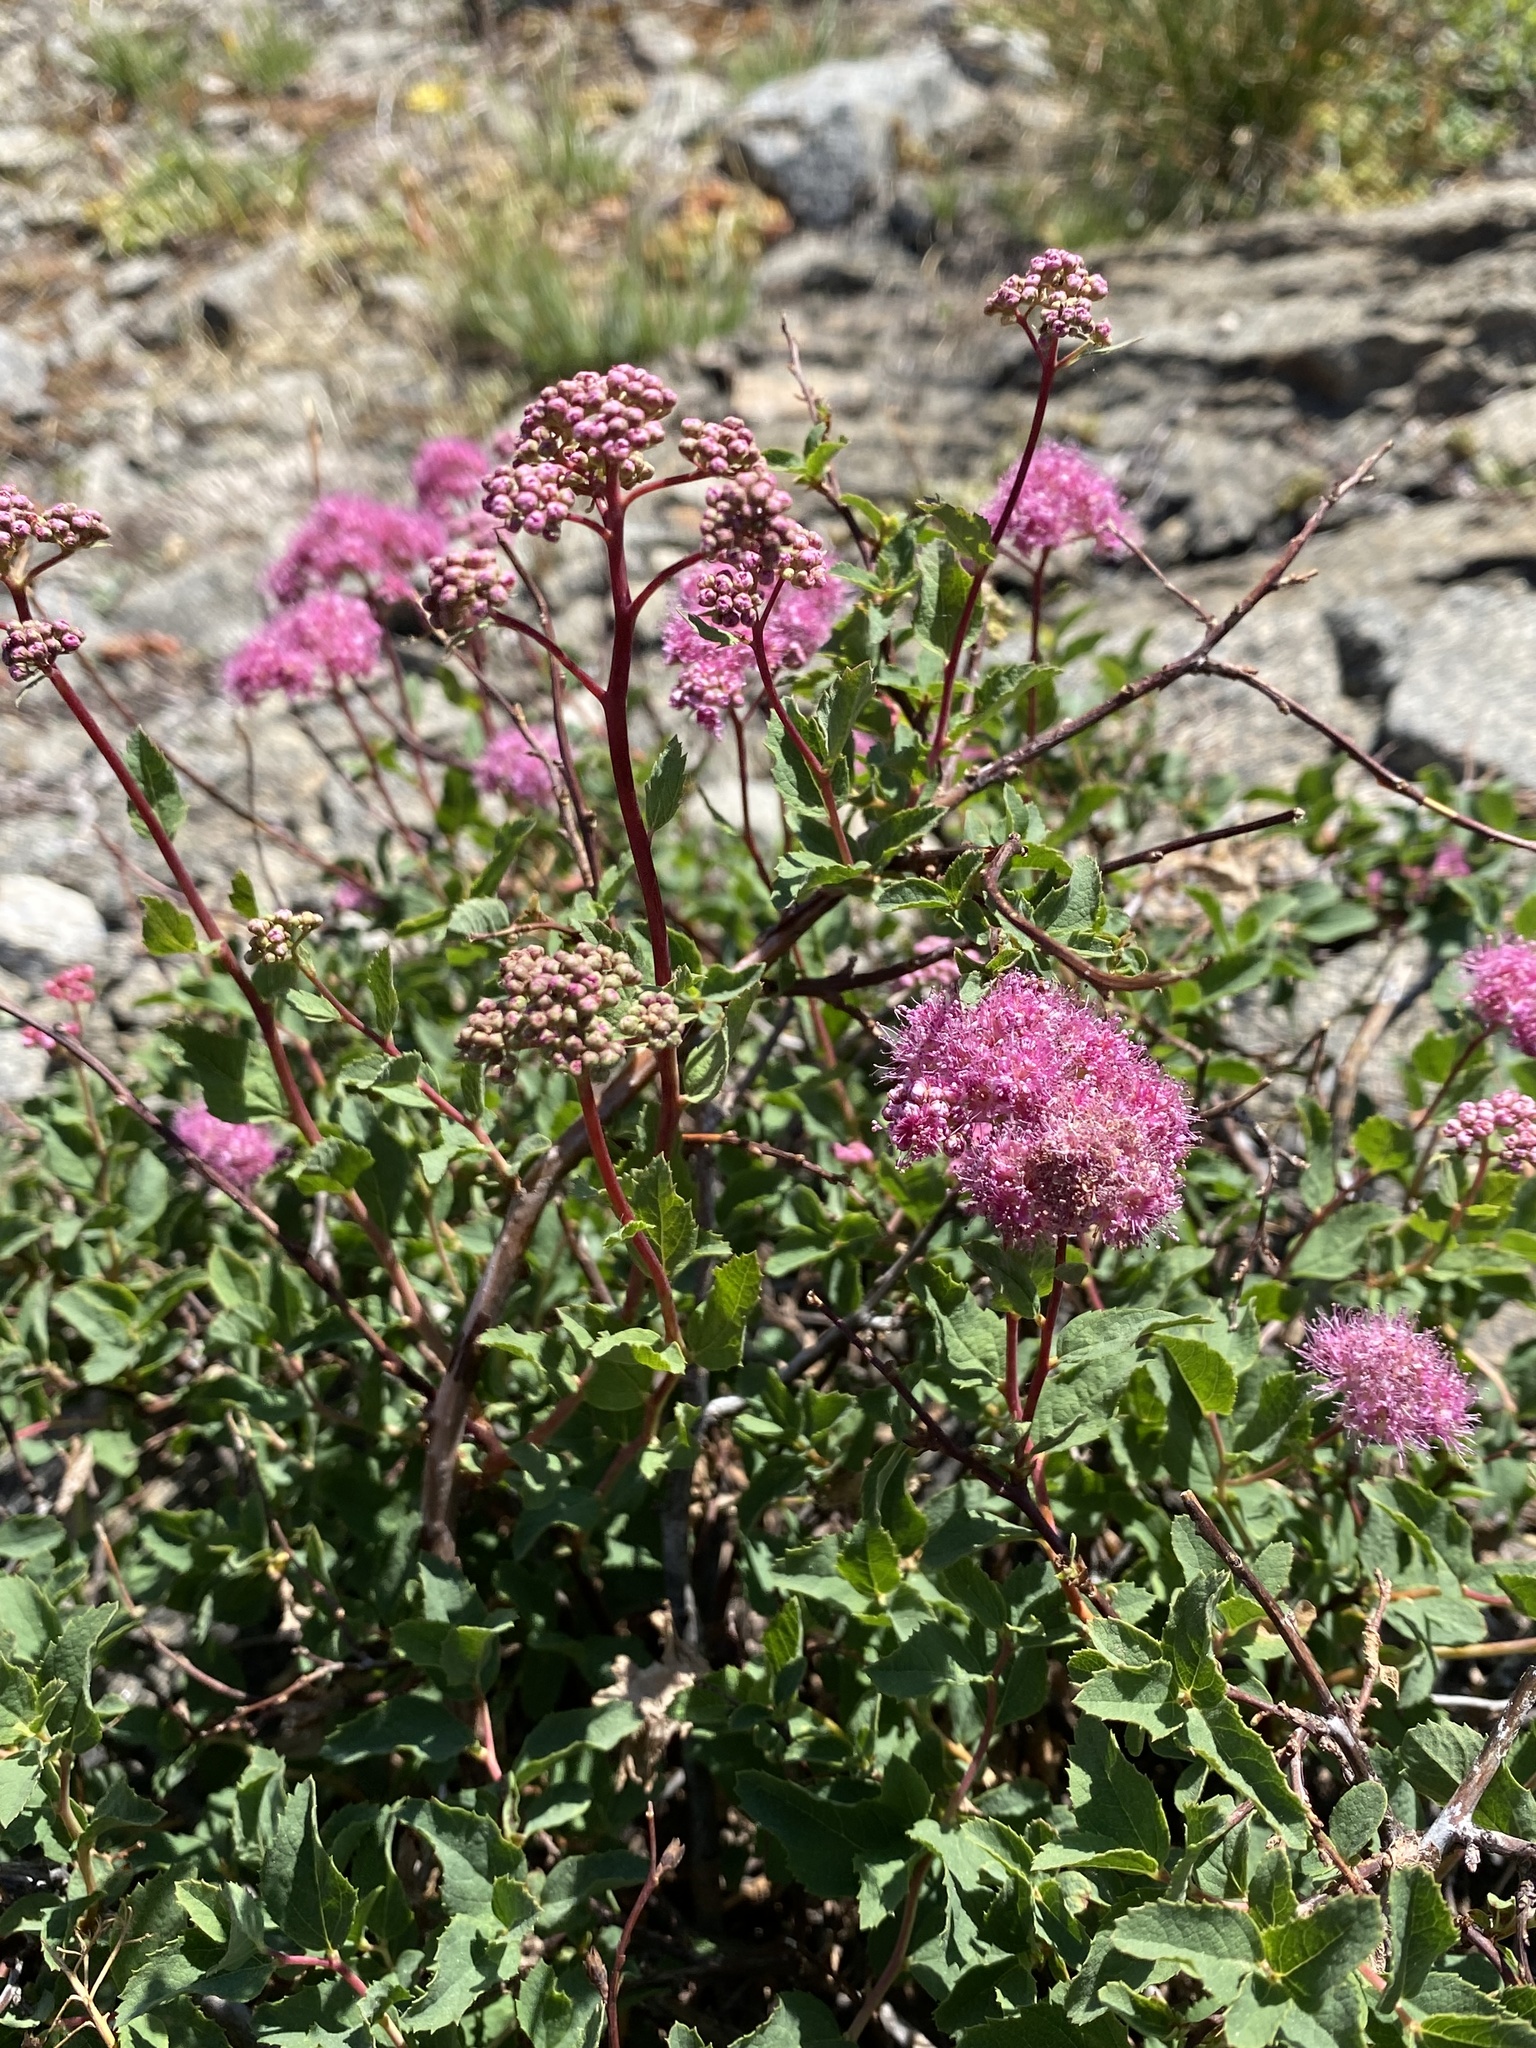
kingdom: Plantae
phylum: Tracheophyta
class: Magnoliopsida
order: Rosales
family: Rosaceae
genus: Spiraea
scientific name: Spiraea splendens
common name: Subalpine meadowsweet
